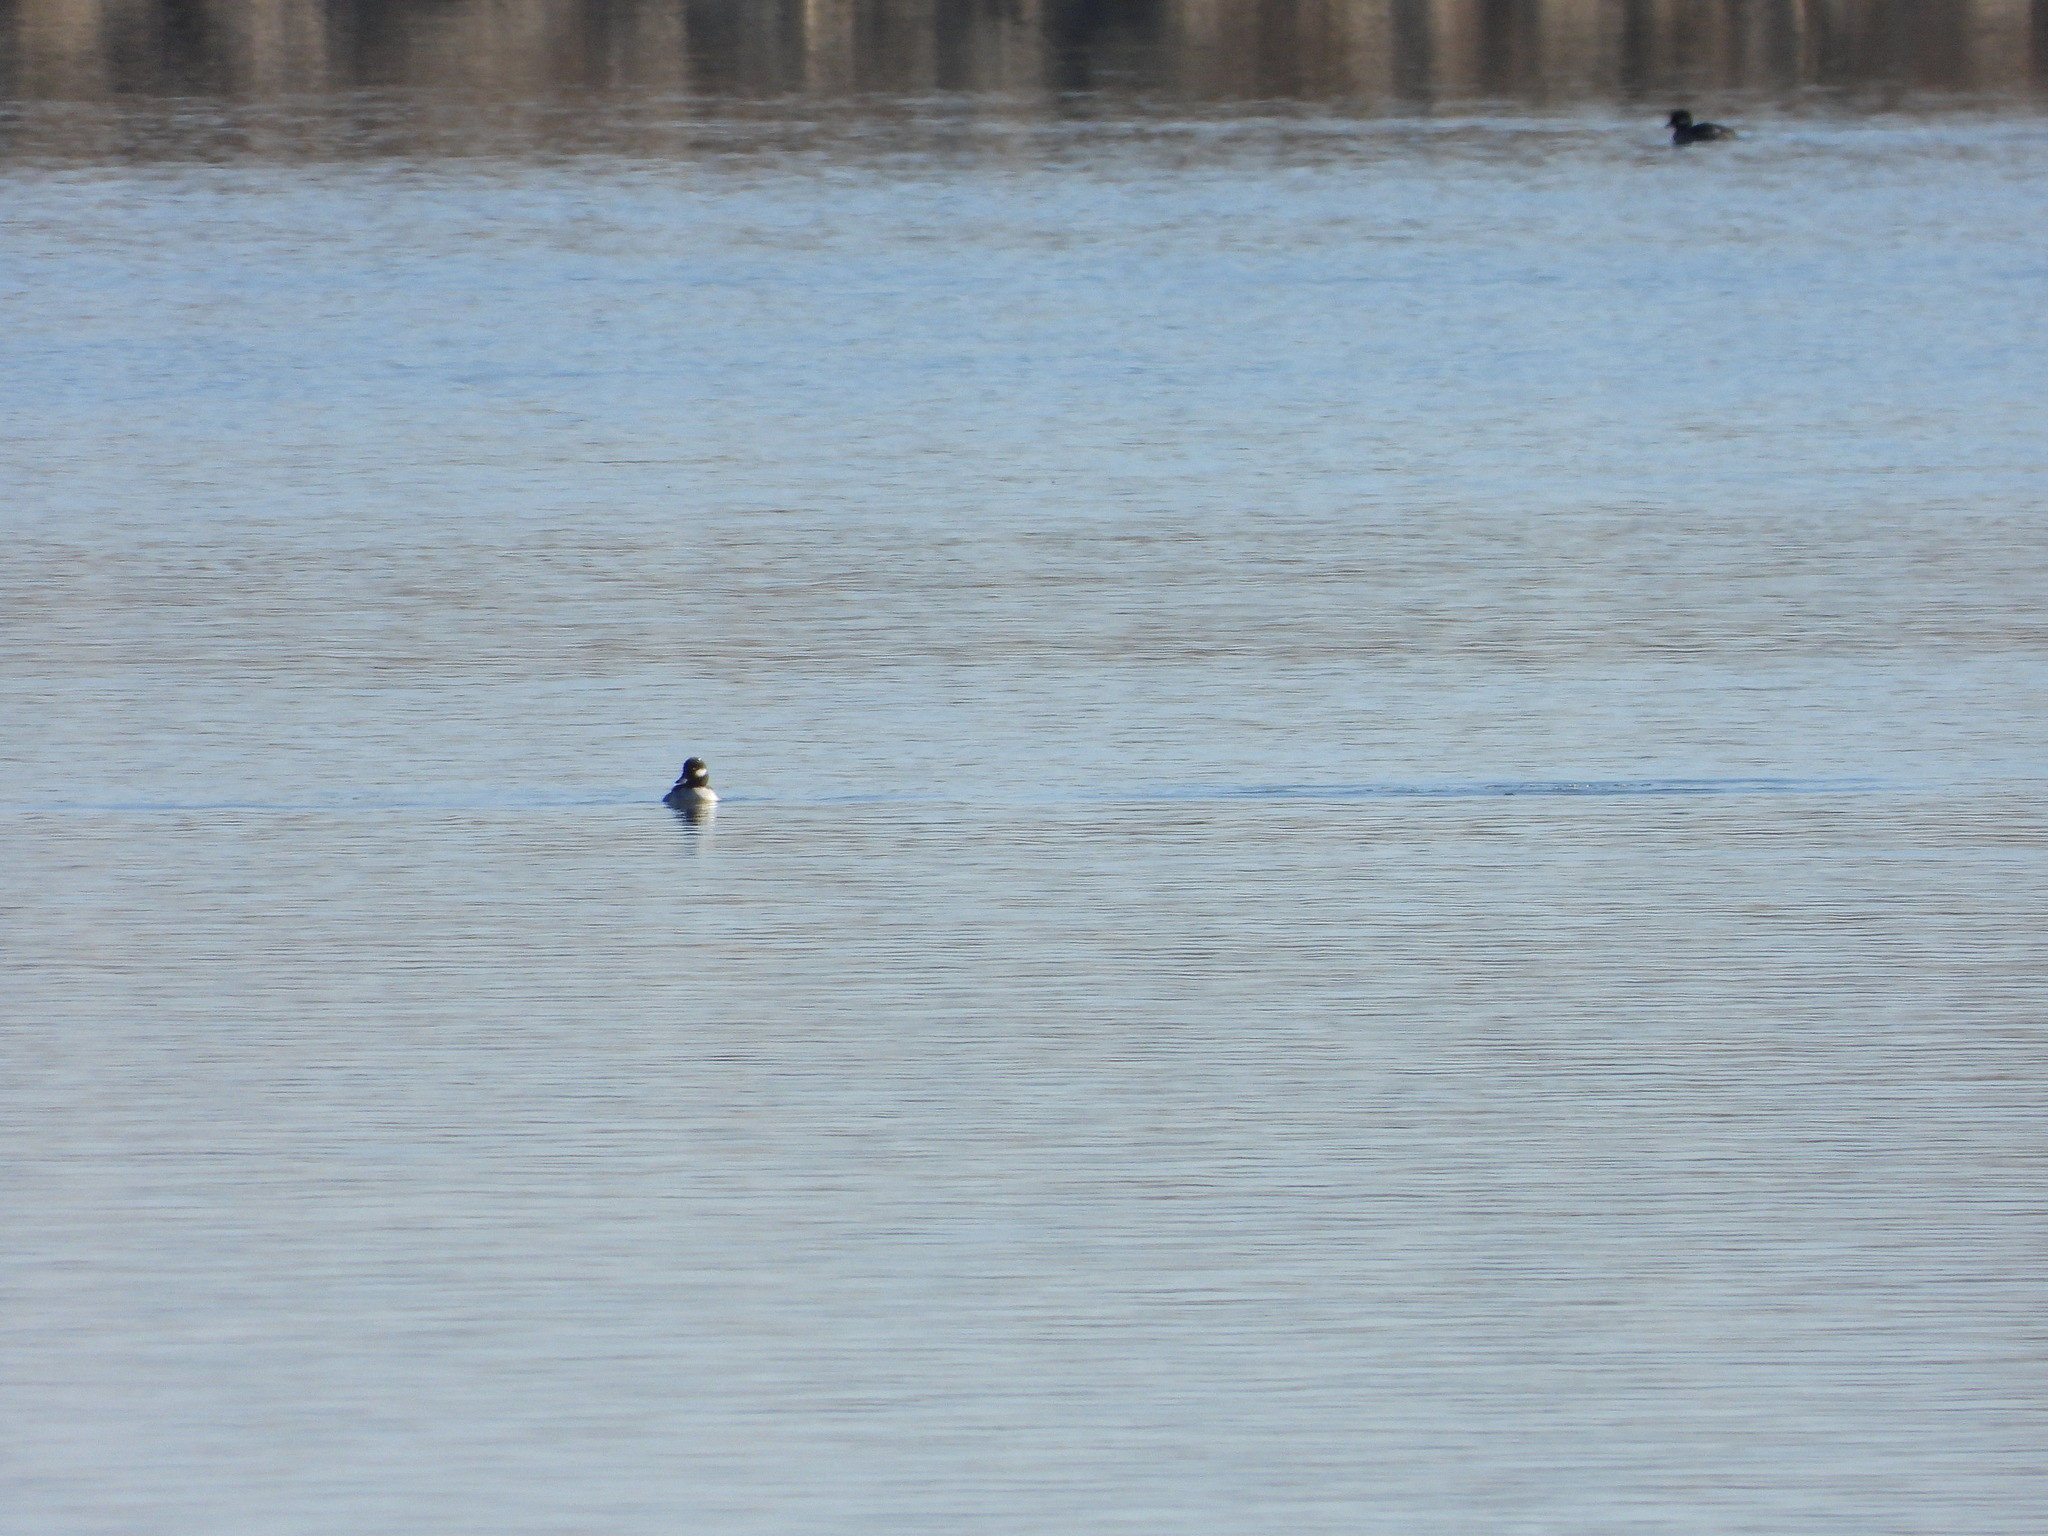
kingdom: Animalia
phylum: Chordata
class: Aves
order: Anseriformes
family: Anatidae
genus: Bucephala
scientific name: Bucephala albeola
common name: Bufflehead
